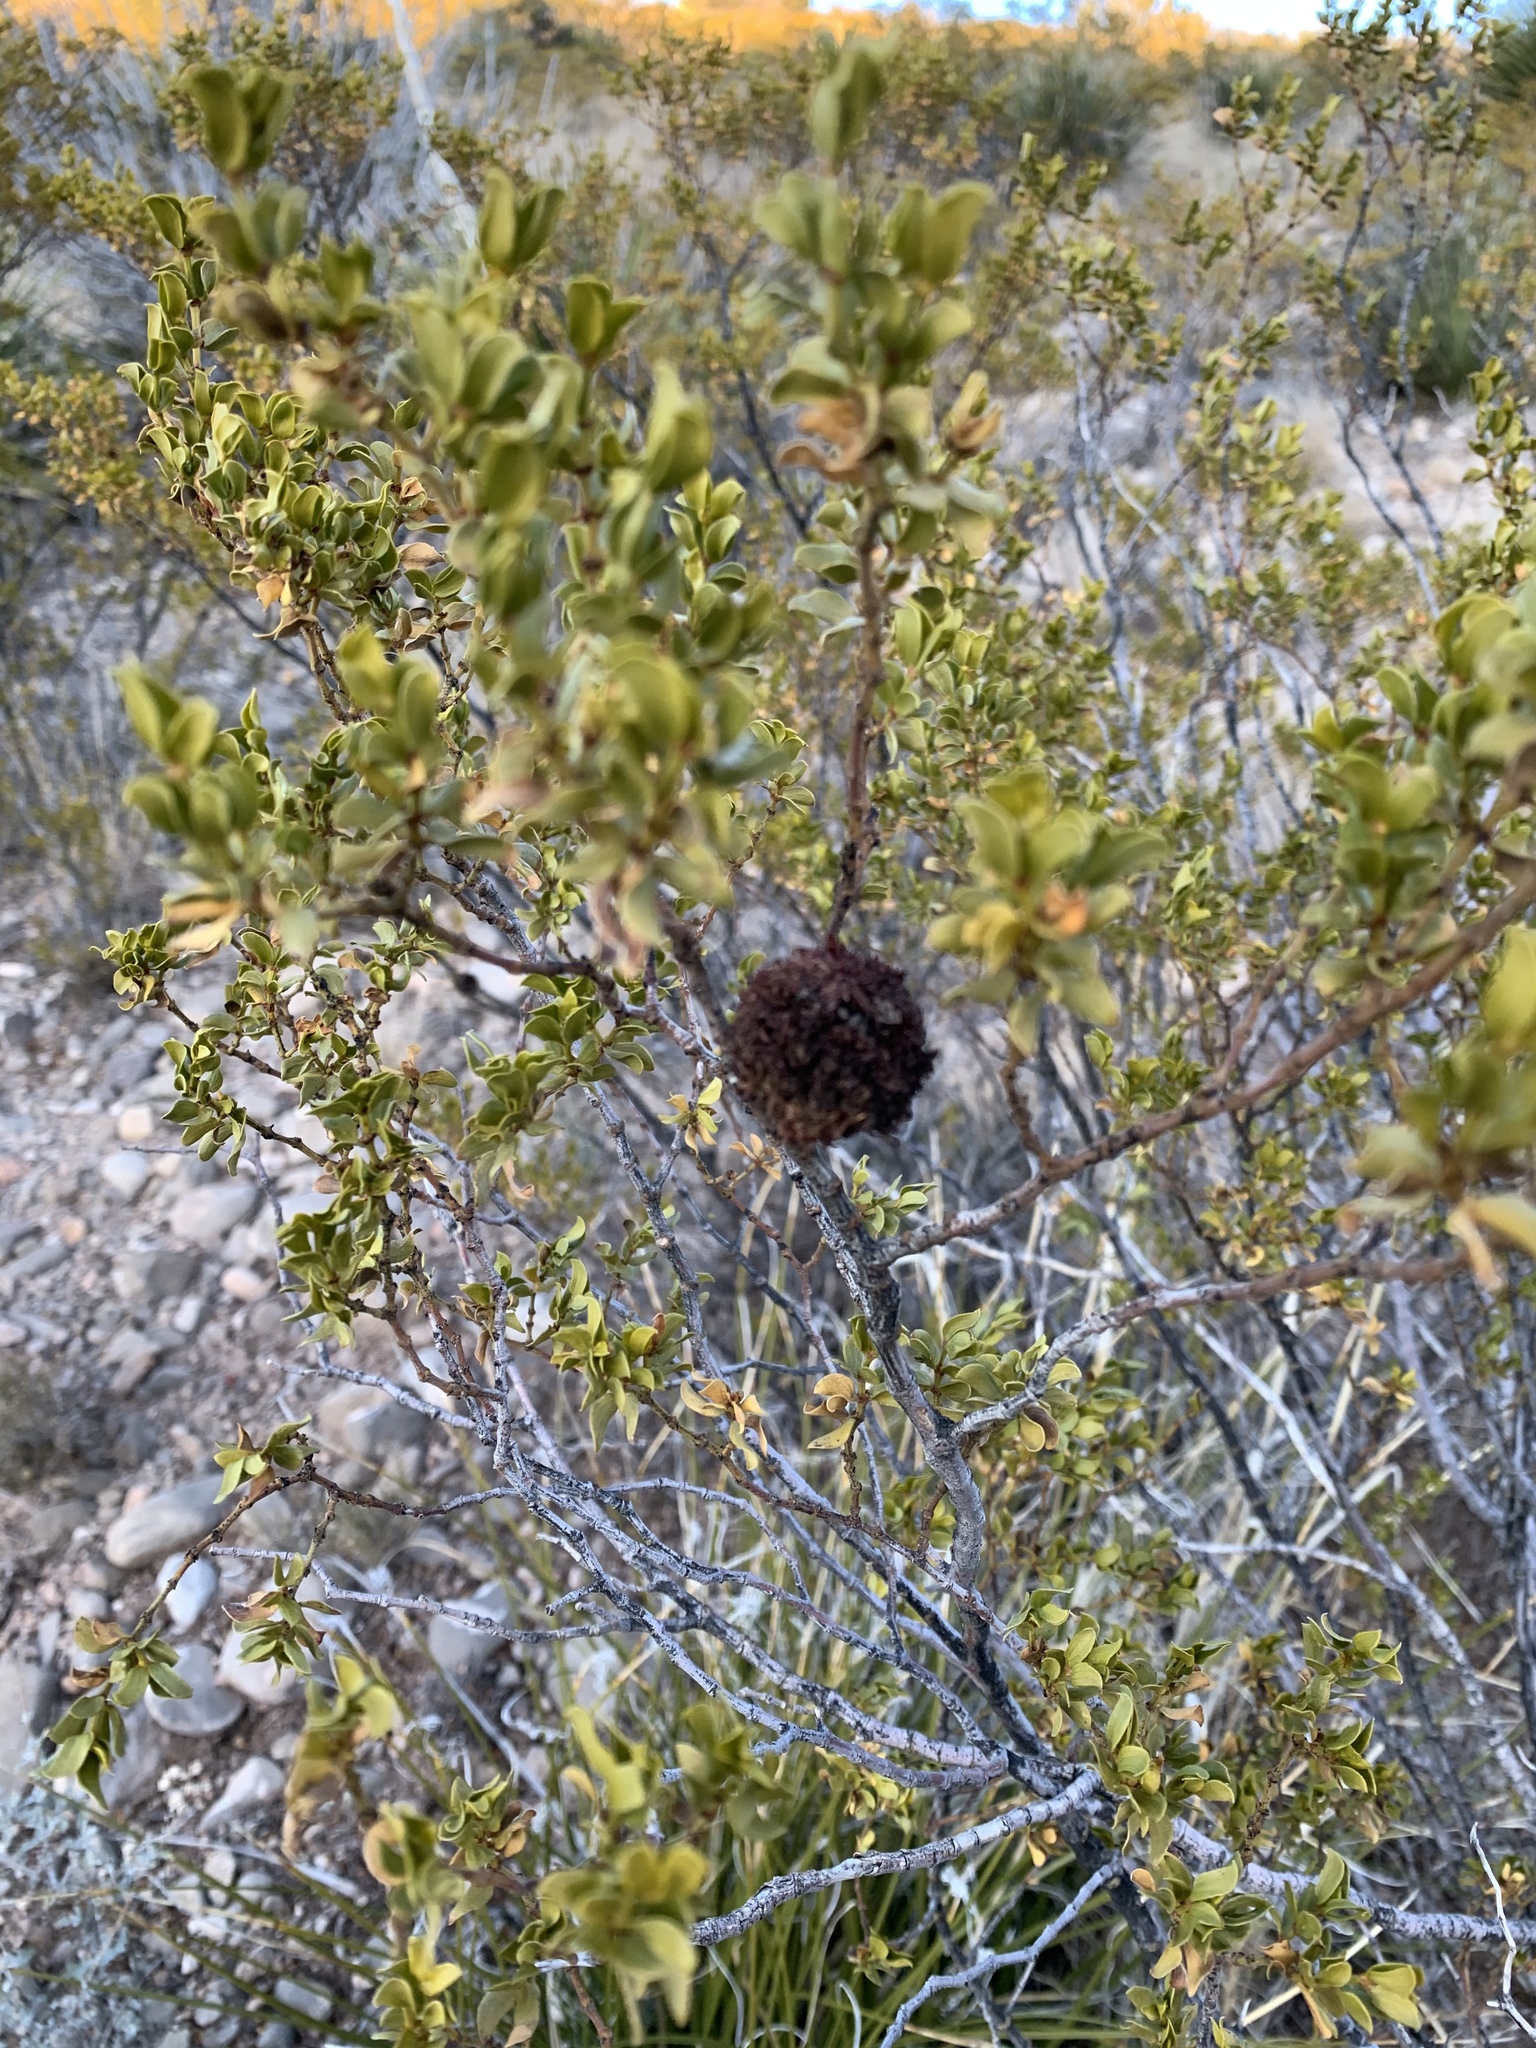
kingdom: Animalia
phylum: Arthropoda
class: Insecta
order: Diptera
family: Cecidomyiidae
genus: Asphondylia
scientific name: Asphondylia auripila
